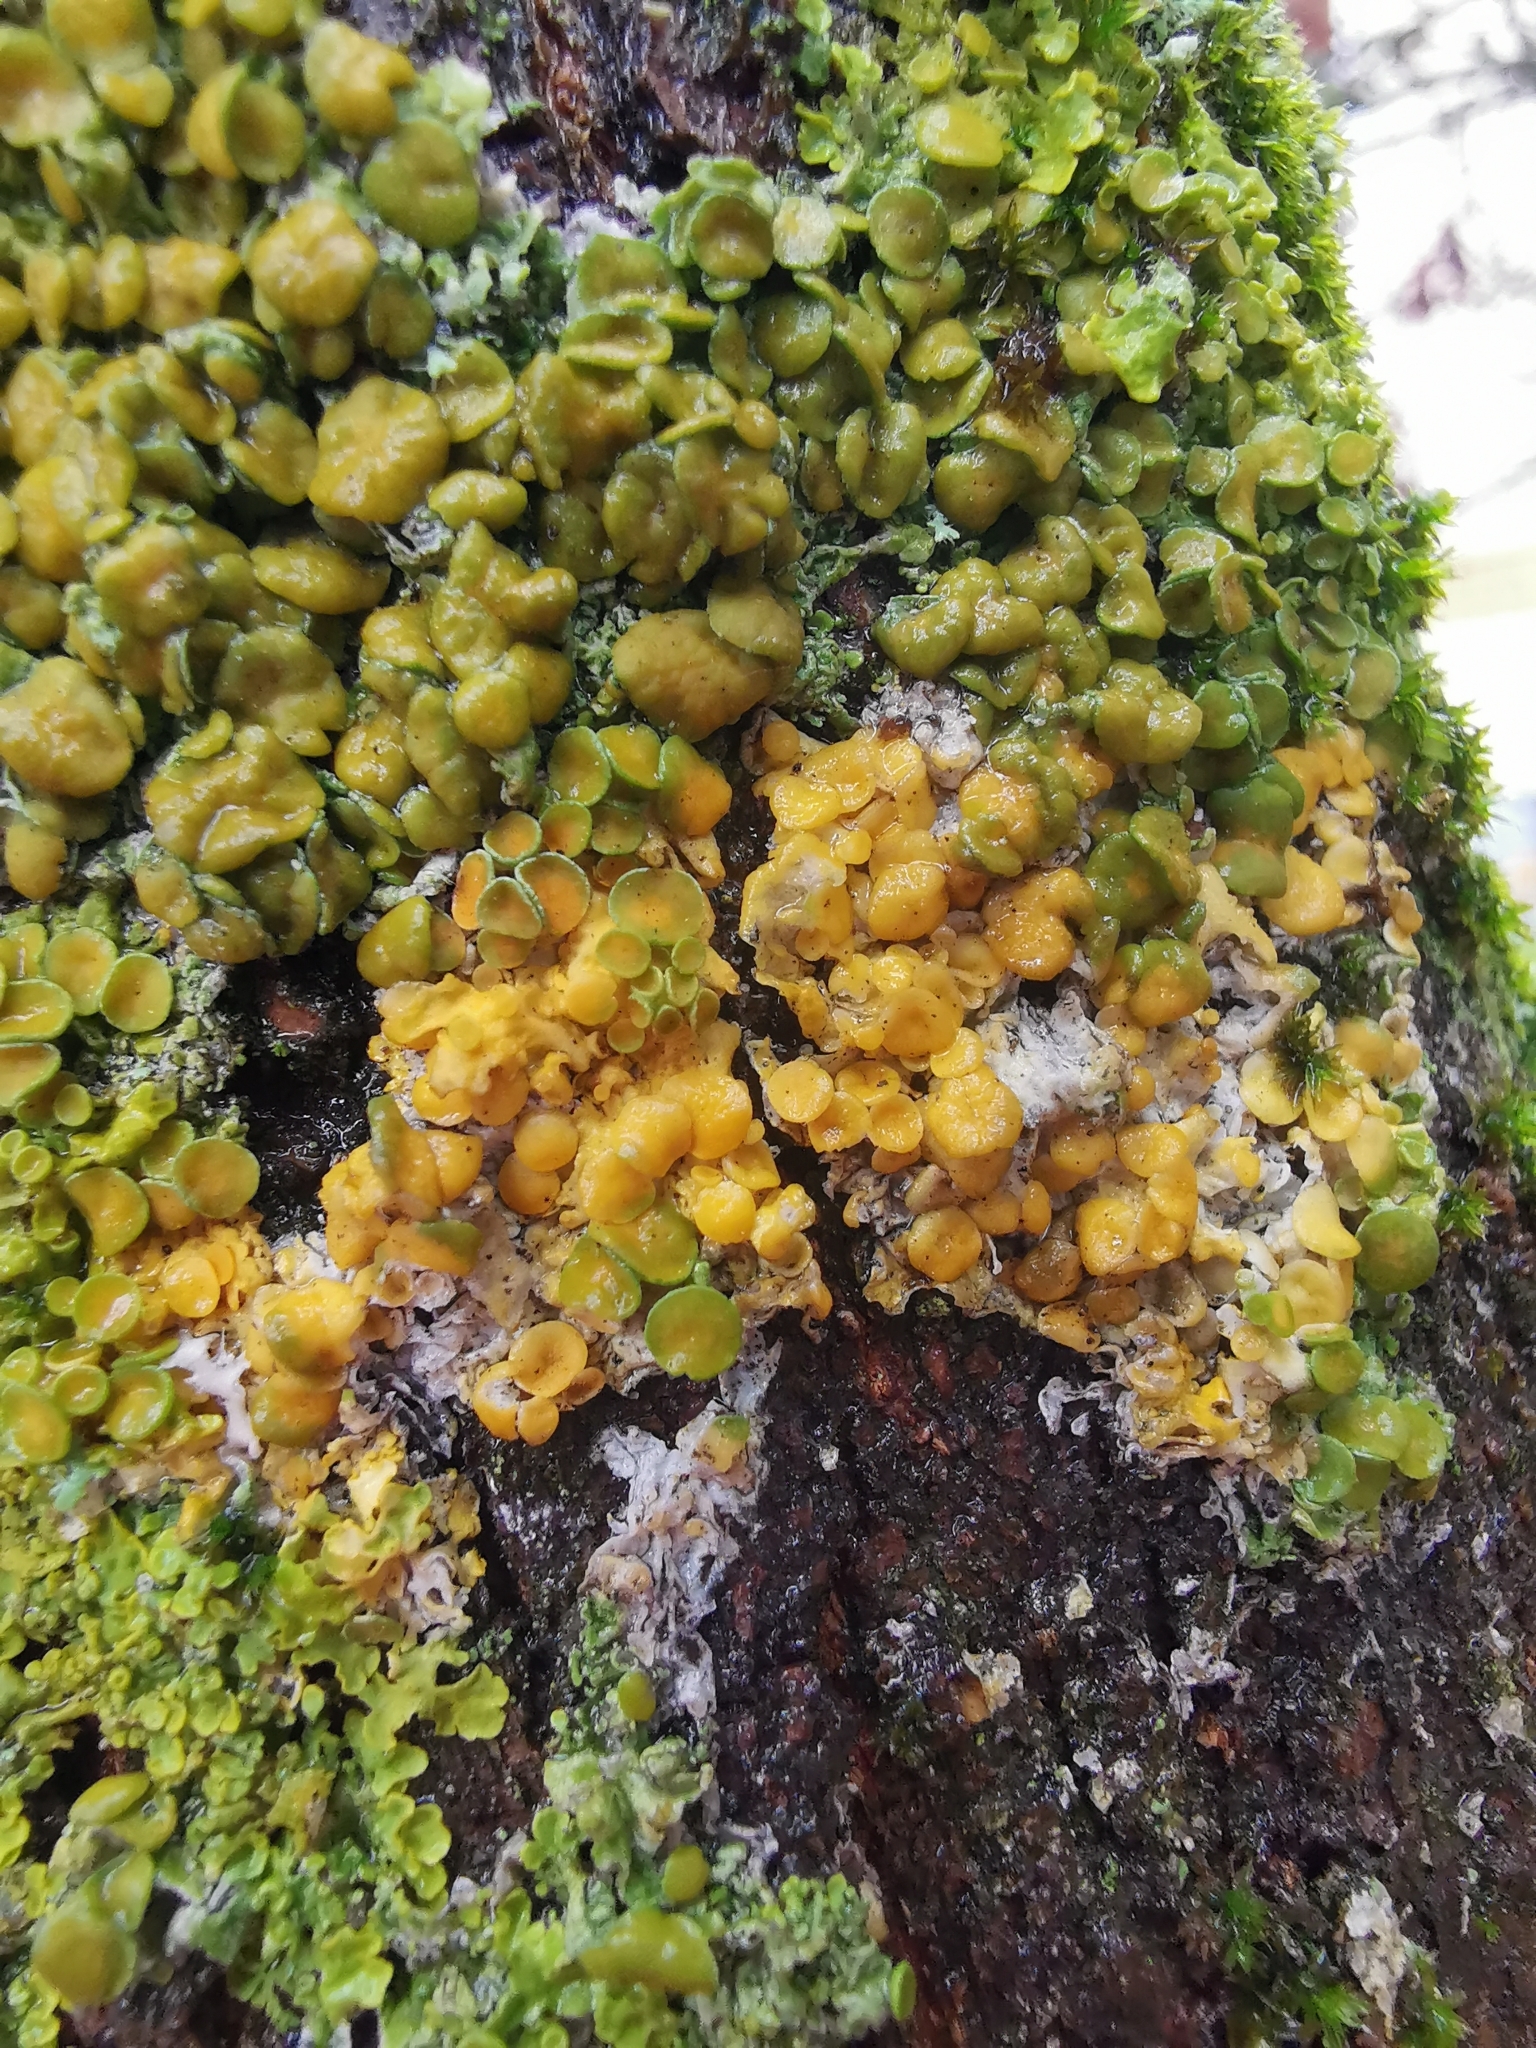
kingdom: Fungi
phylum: Ascomycota
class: Lecanoromycetes
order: Teloschistales
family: Teloschistaceae
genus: Xanthoria
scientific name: Xanthoria parietina
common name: Common orange lichen
